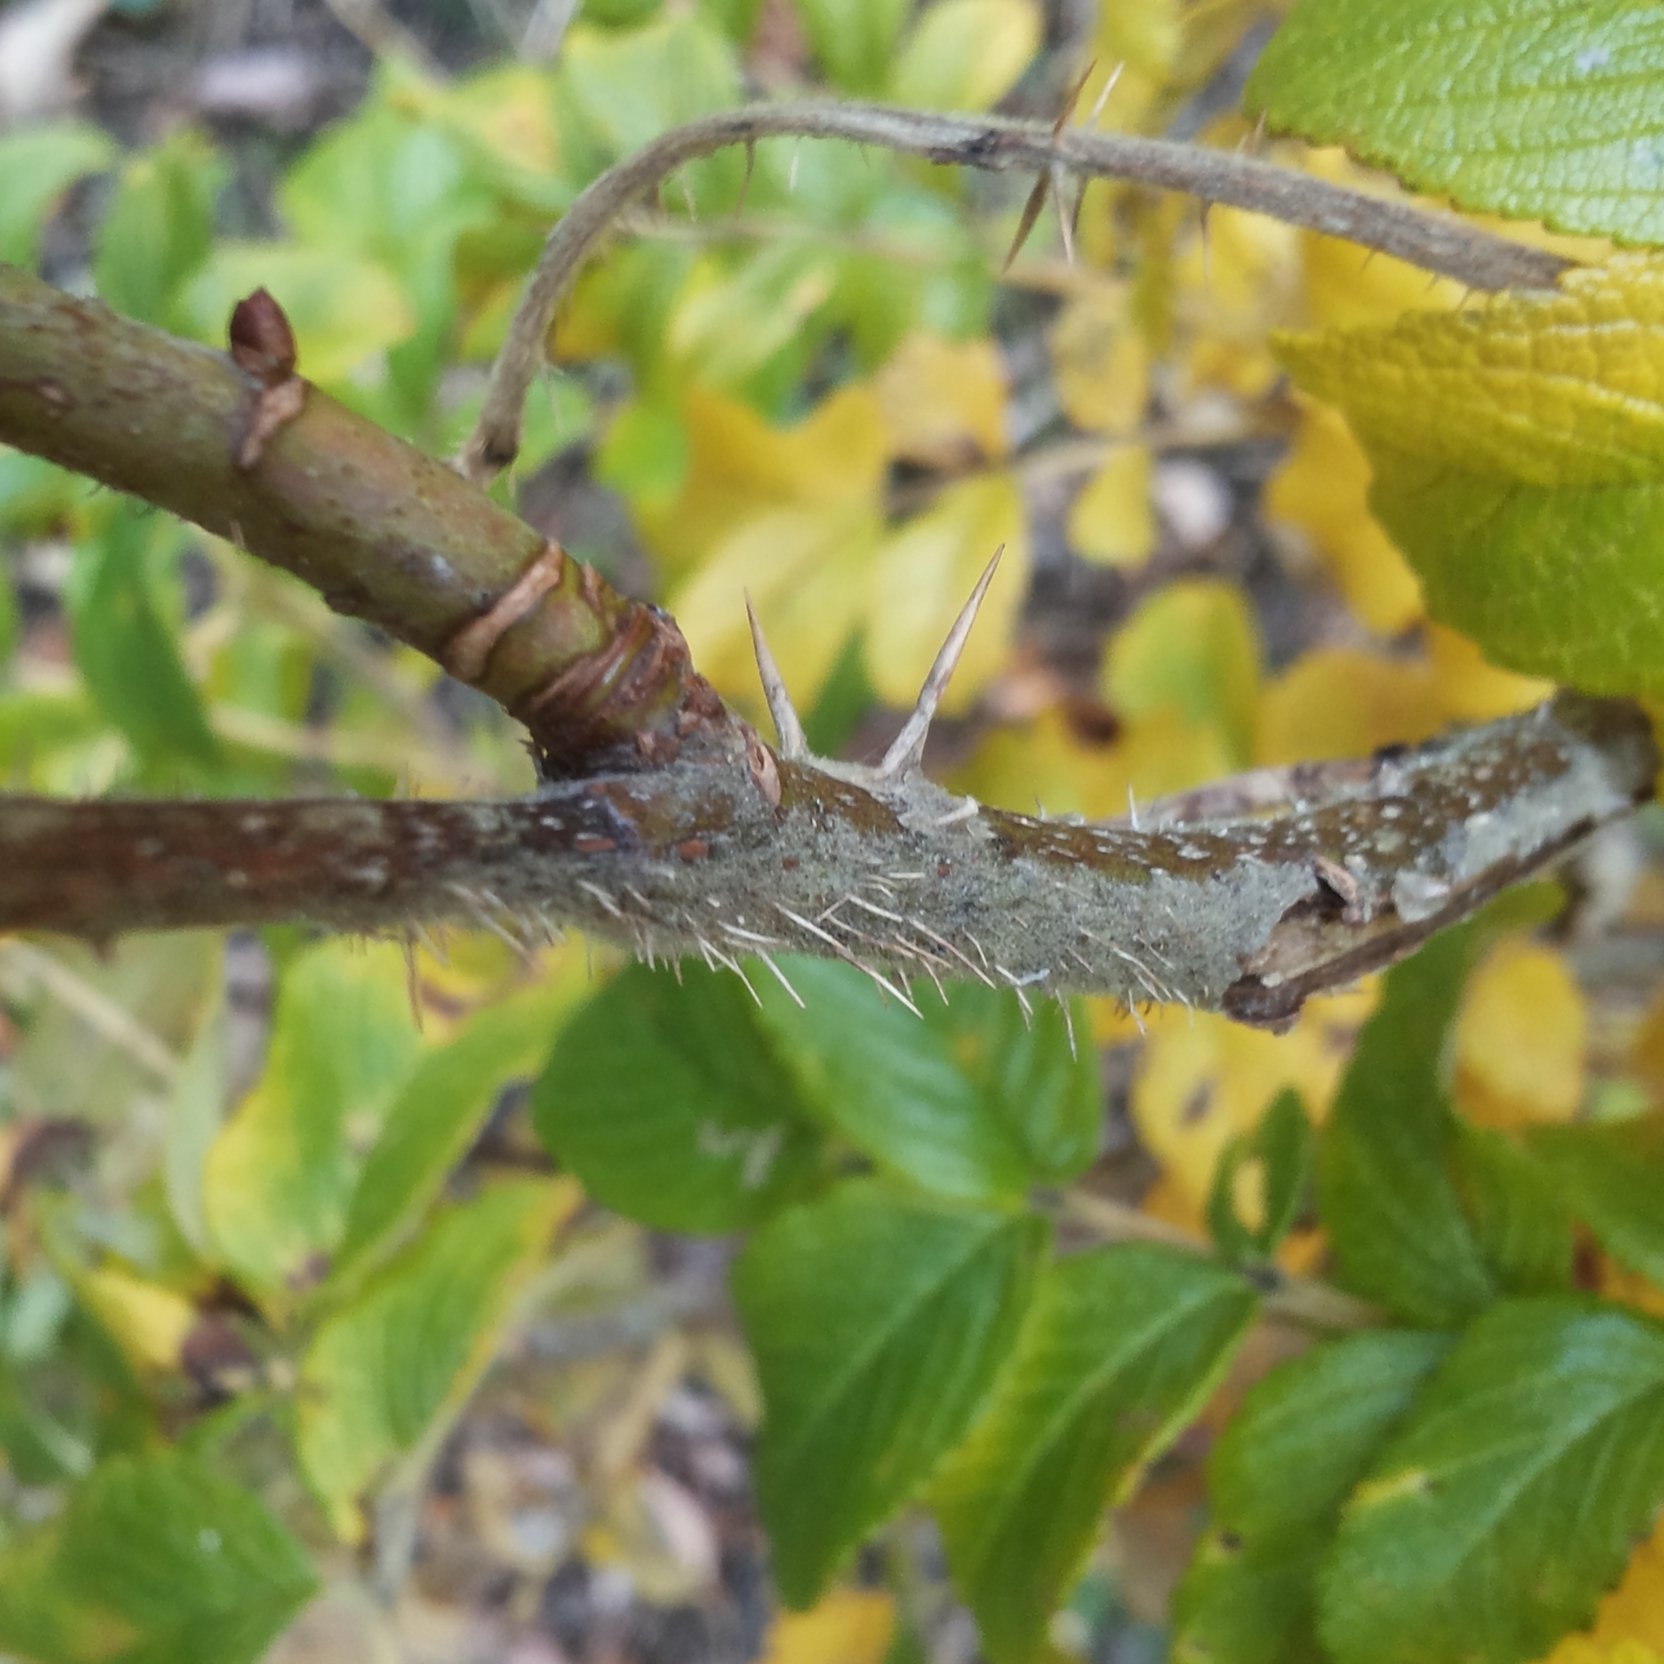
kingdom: Plantae
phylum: Tracheophyta
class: Magnoliopsida
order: Rosales
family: Rosaceae
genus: Rosa
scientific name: Rosa rugosa
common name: Japanese rose
